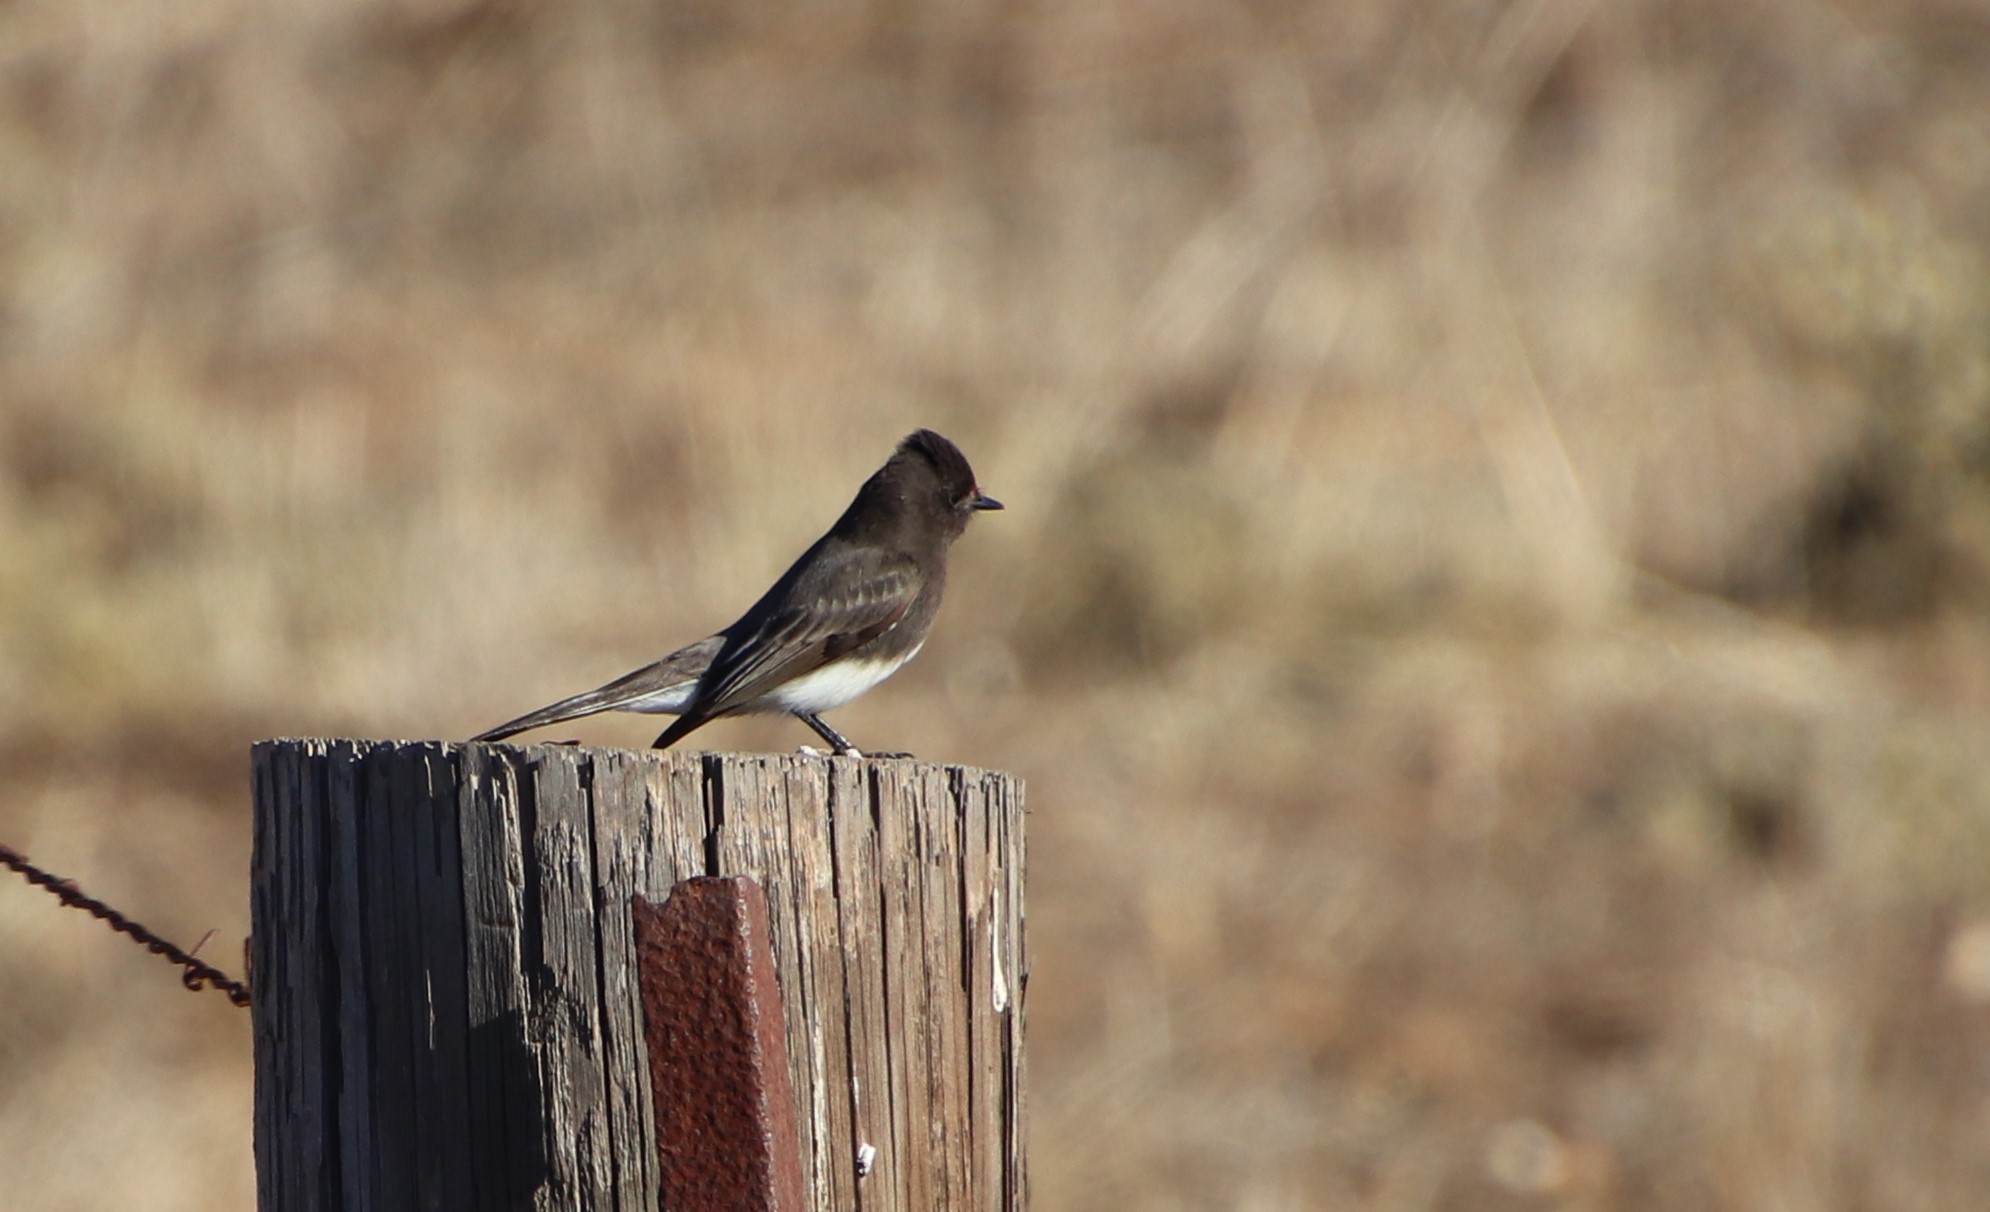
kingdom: Animalia
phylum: Chordata
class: Aves
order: Passeriformes
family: Tyrannidae
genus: Sayornis
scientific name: Sayornis nigricans
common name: Black phoebe
